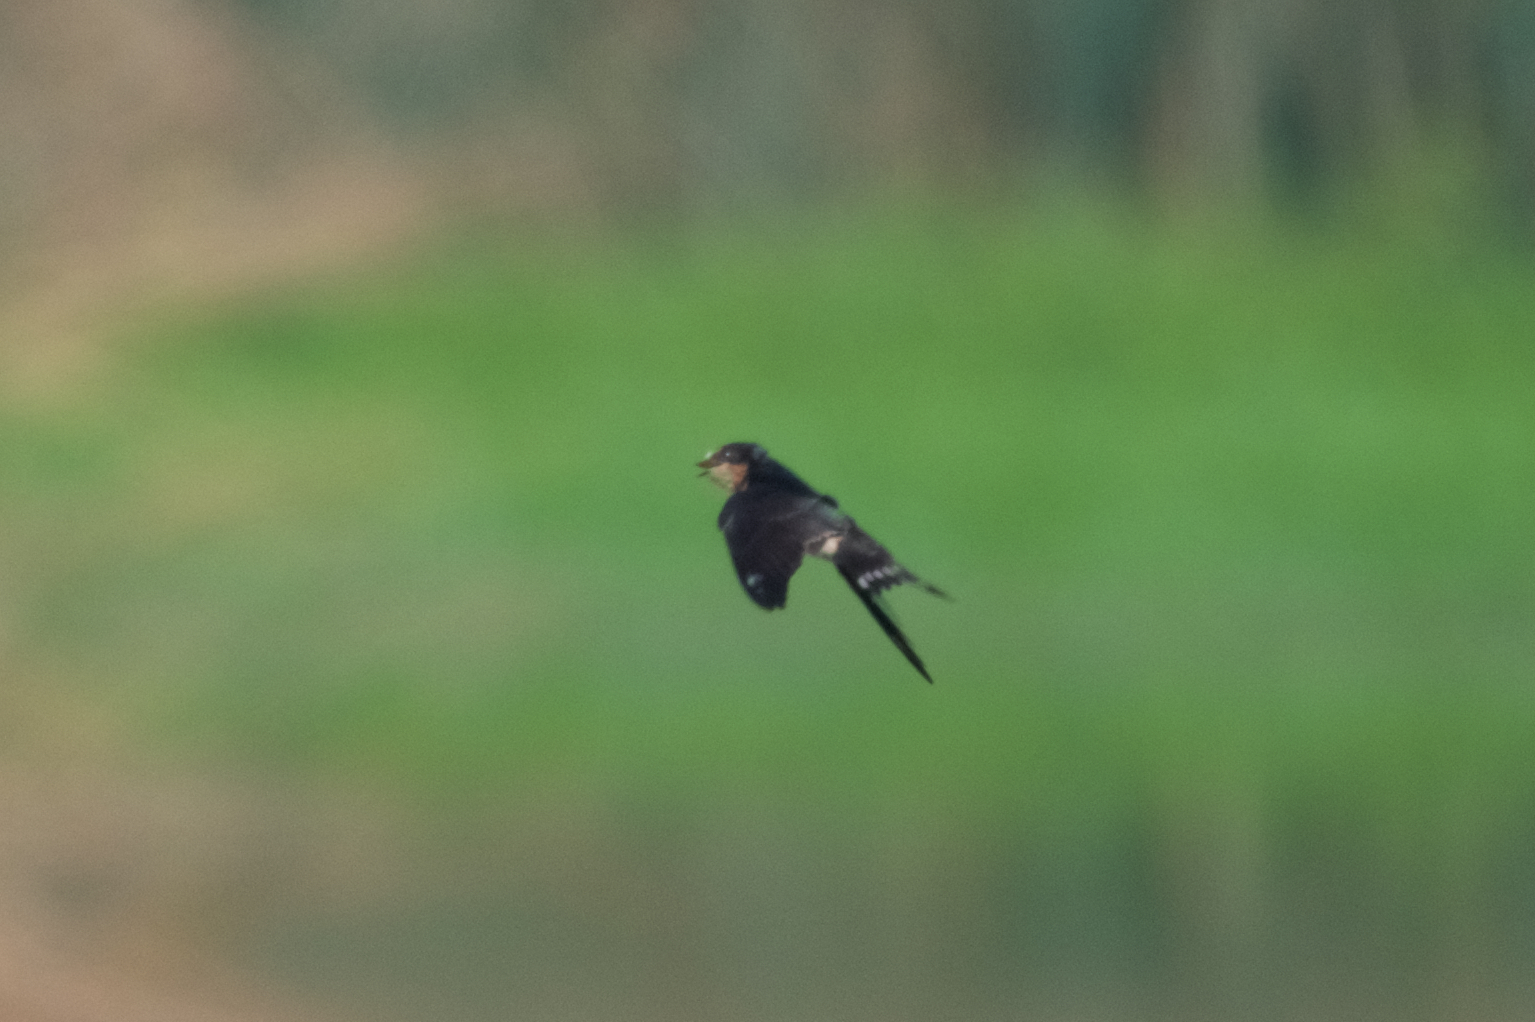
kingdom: Animalia
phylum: Chordata
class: Aves
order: Passeriformes
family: Hirundinidae
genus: Hirundo
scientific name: Hirundo rustica
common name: Barn swallow
